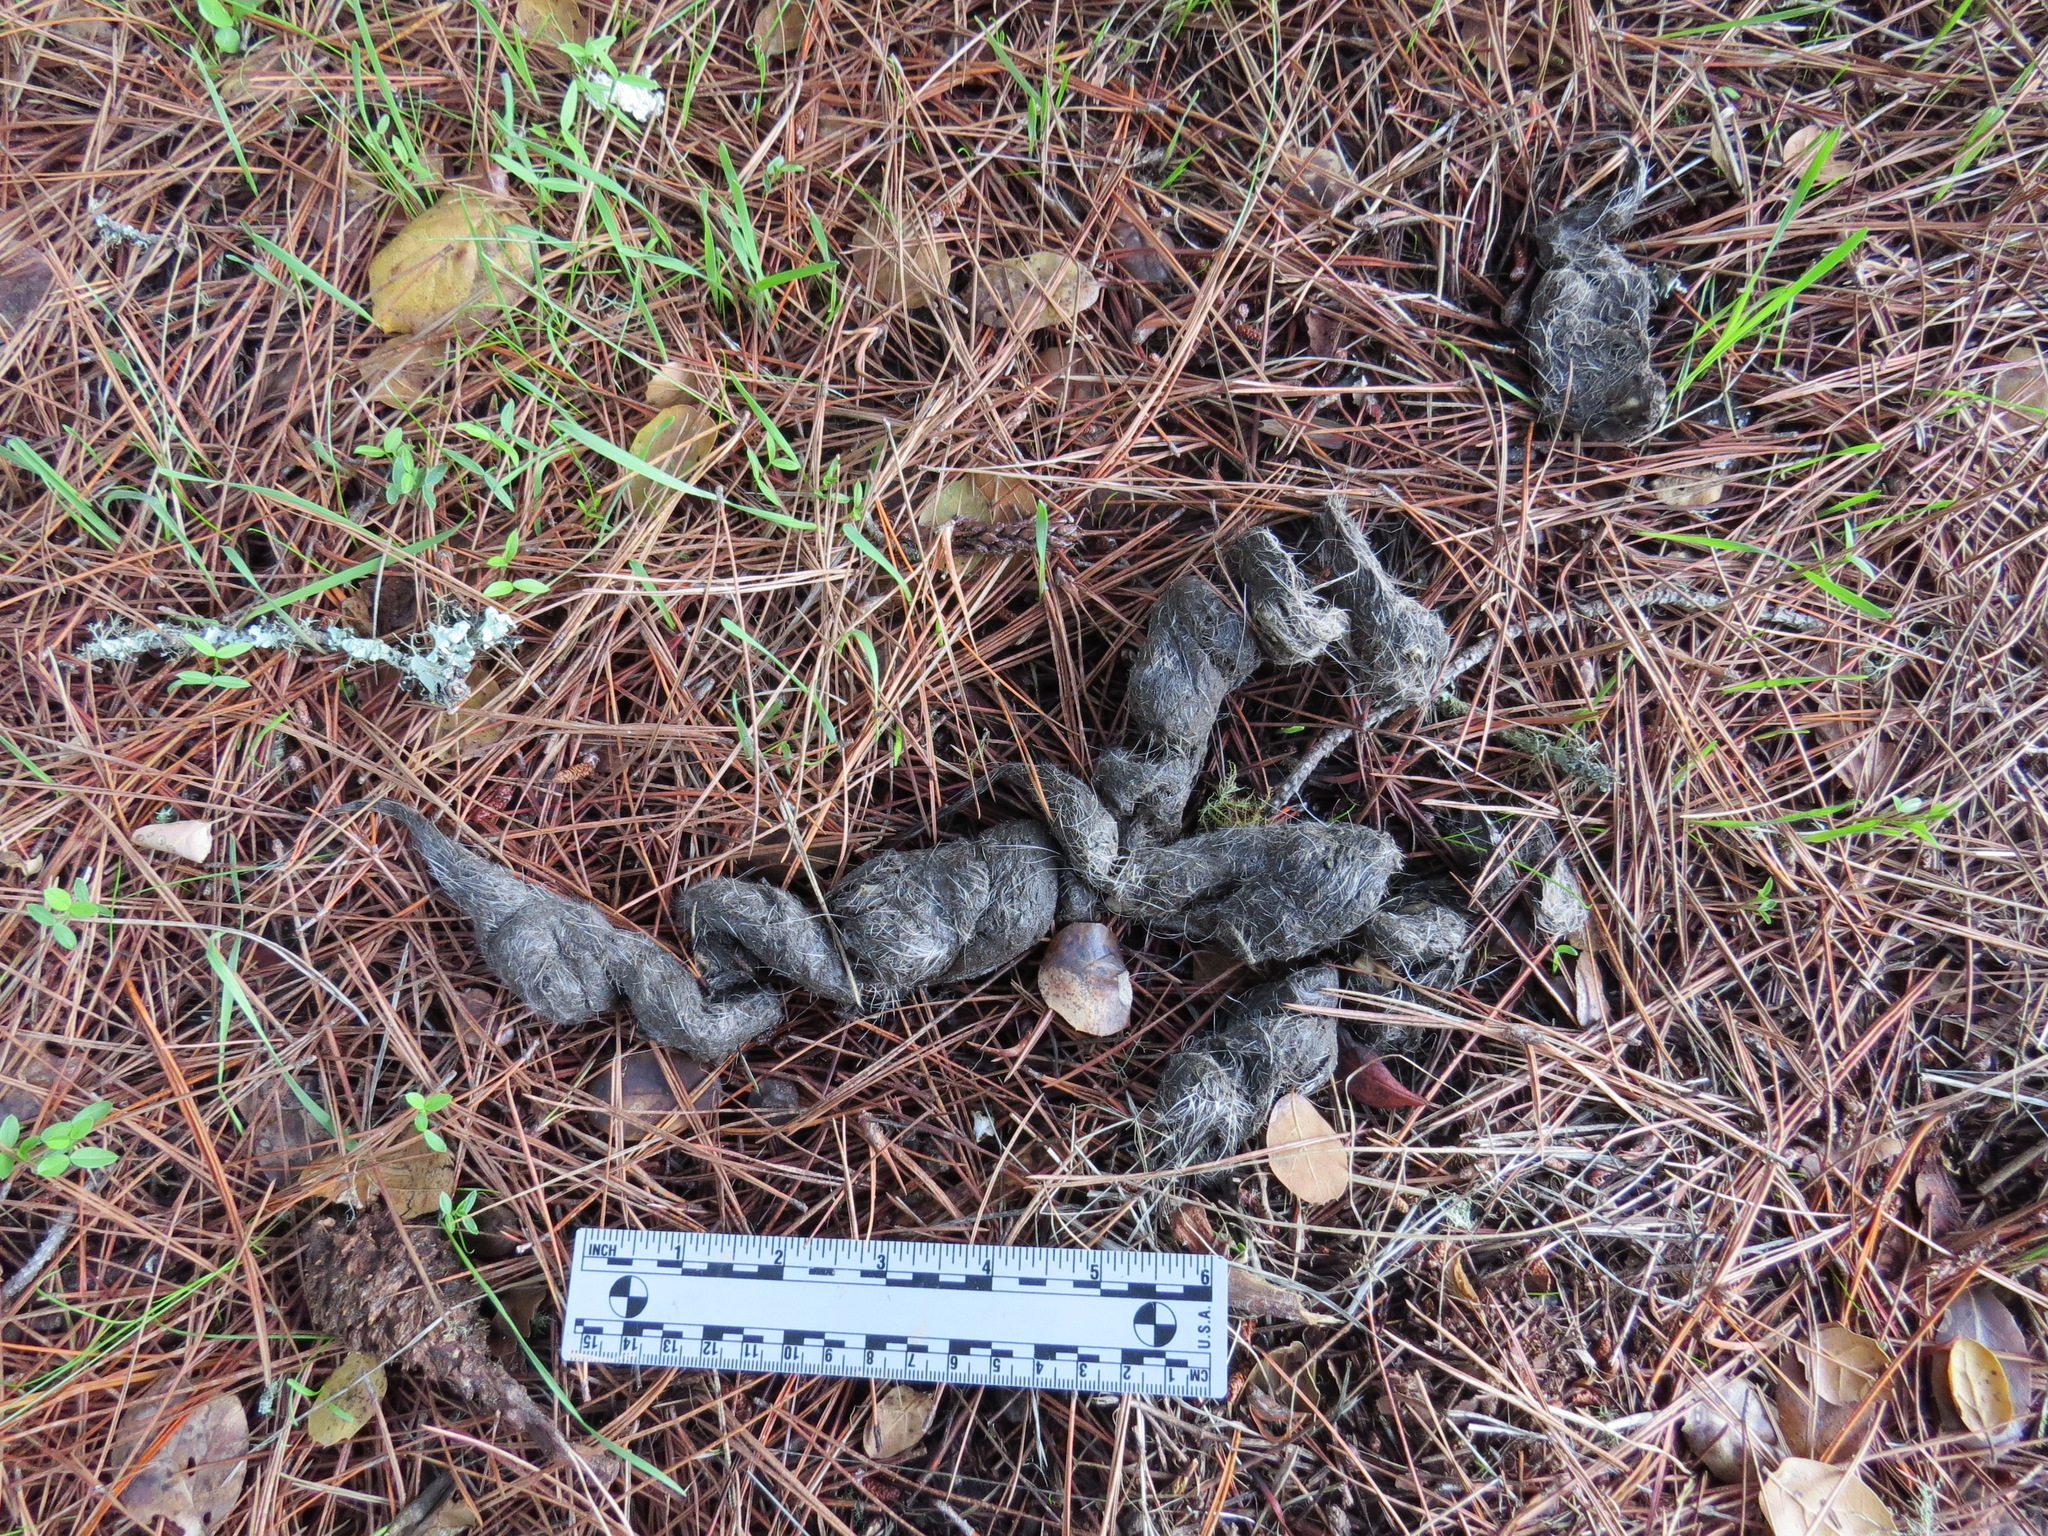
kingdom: Animalia
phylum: Chordata
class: Mammalia
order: Carnivora
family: Felidae
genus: Puma
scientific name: Puma concolor
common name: Puma
